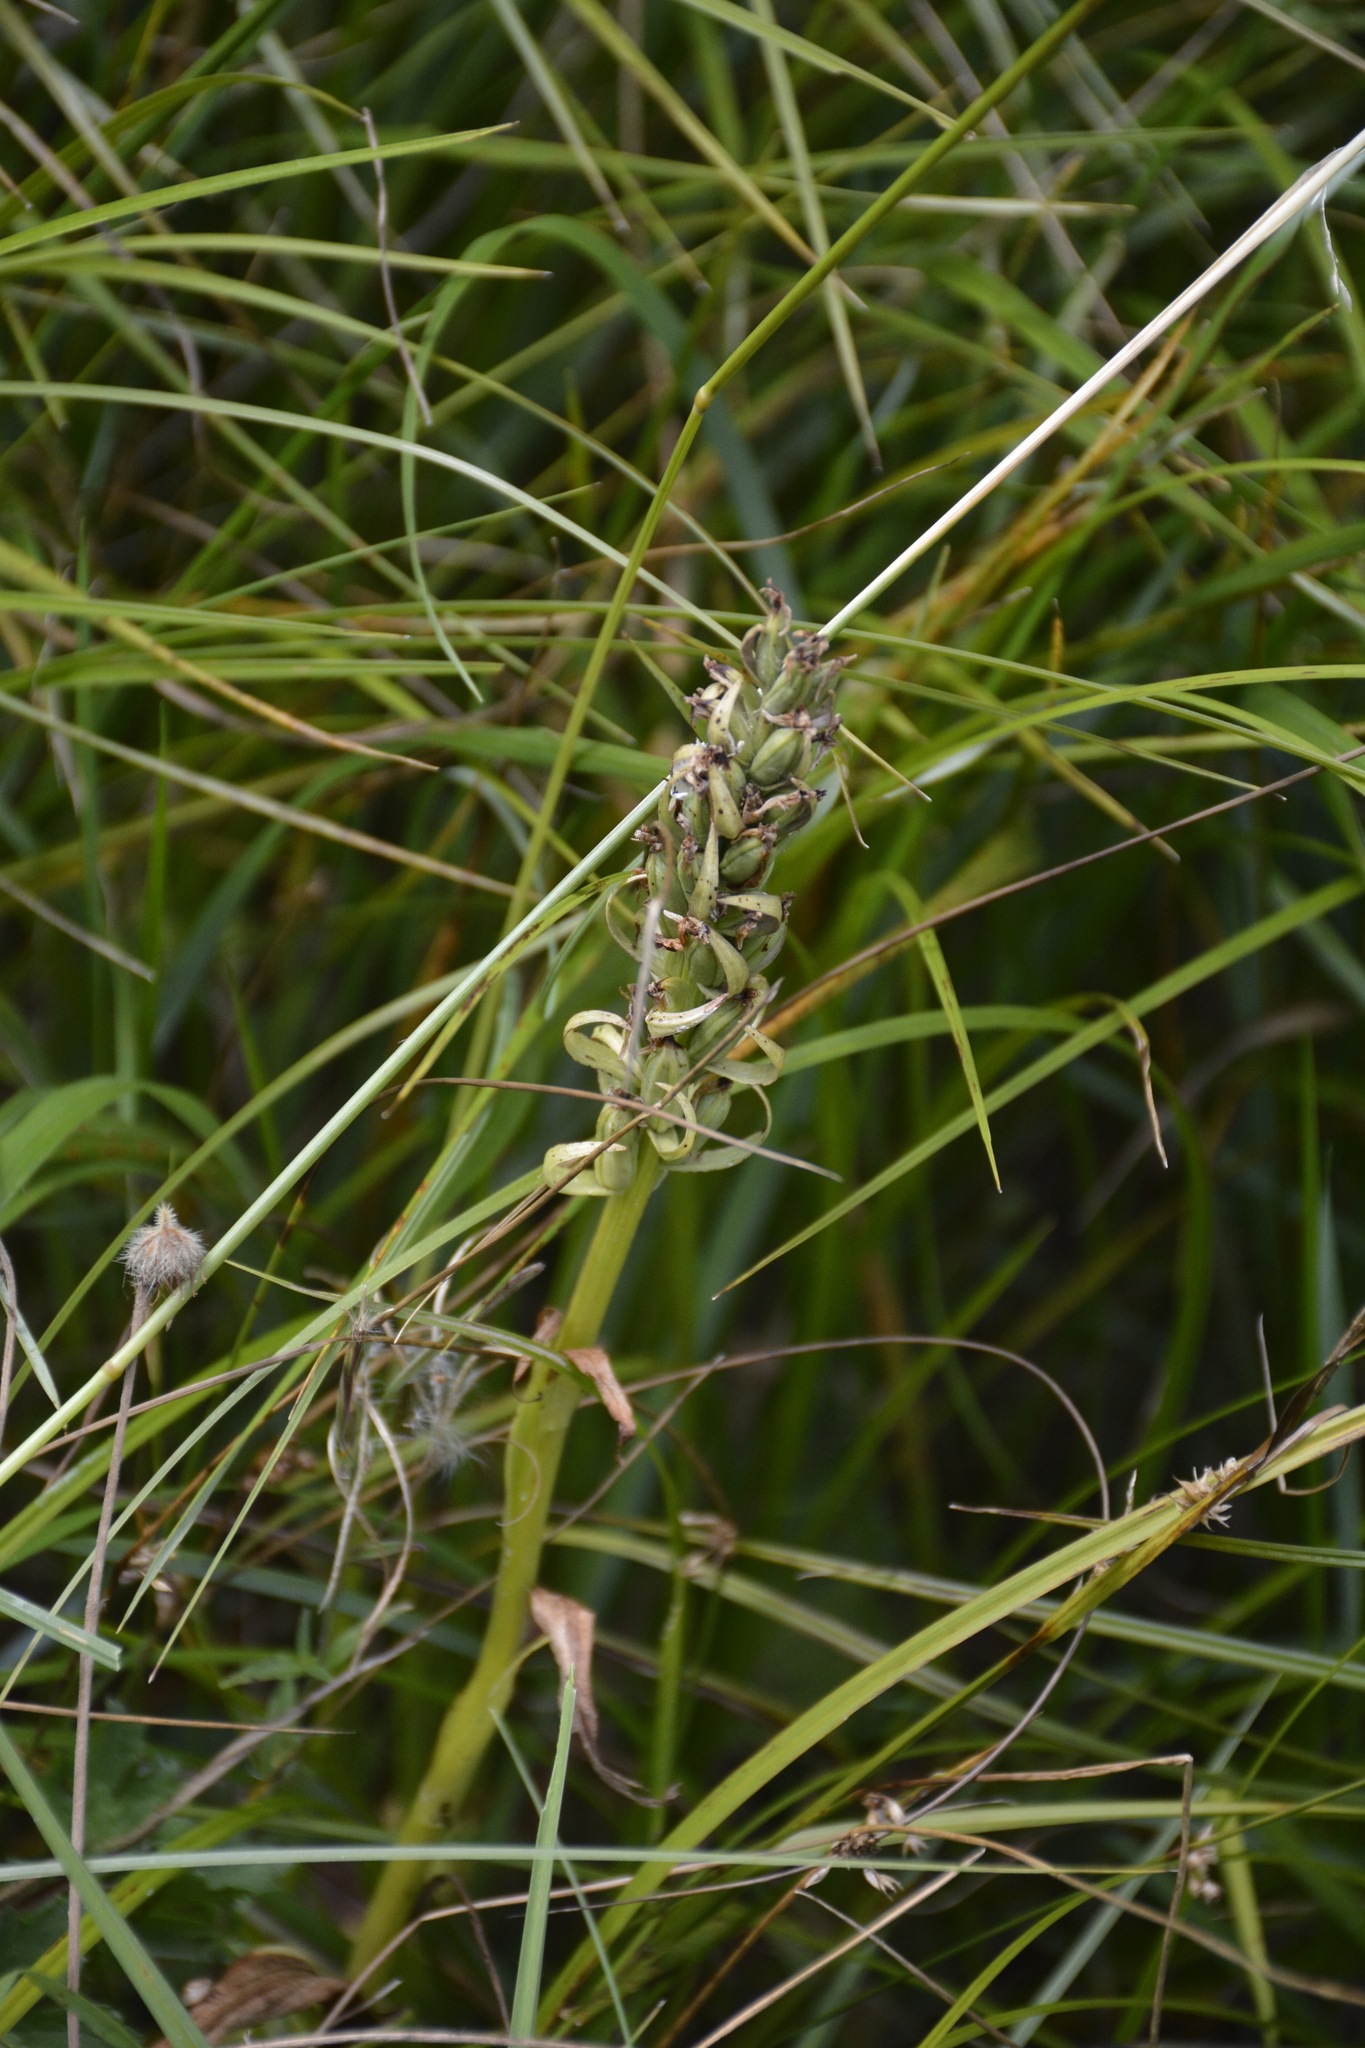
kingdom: Plantae
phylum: Tracheophyta
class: Liliopsida
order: Asparagales
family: Orchidaceae
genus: Dactylorhiza
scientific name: Dactylorhiza incarnata
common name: Early marsh-orchid
